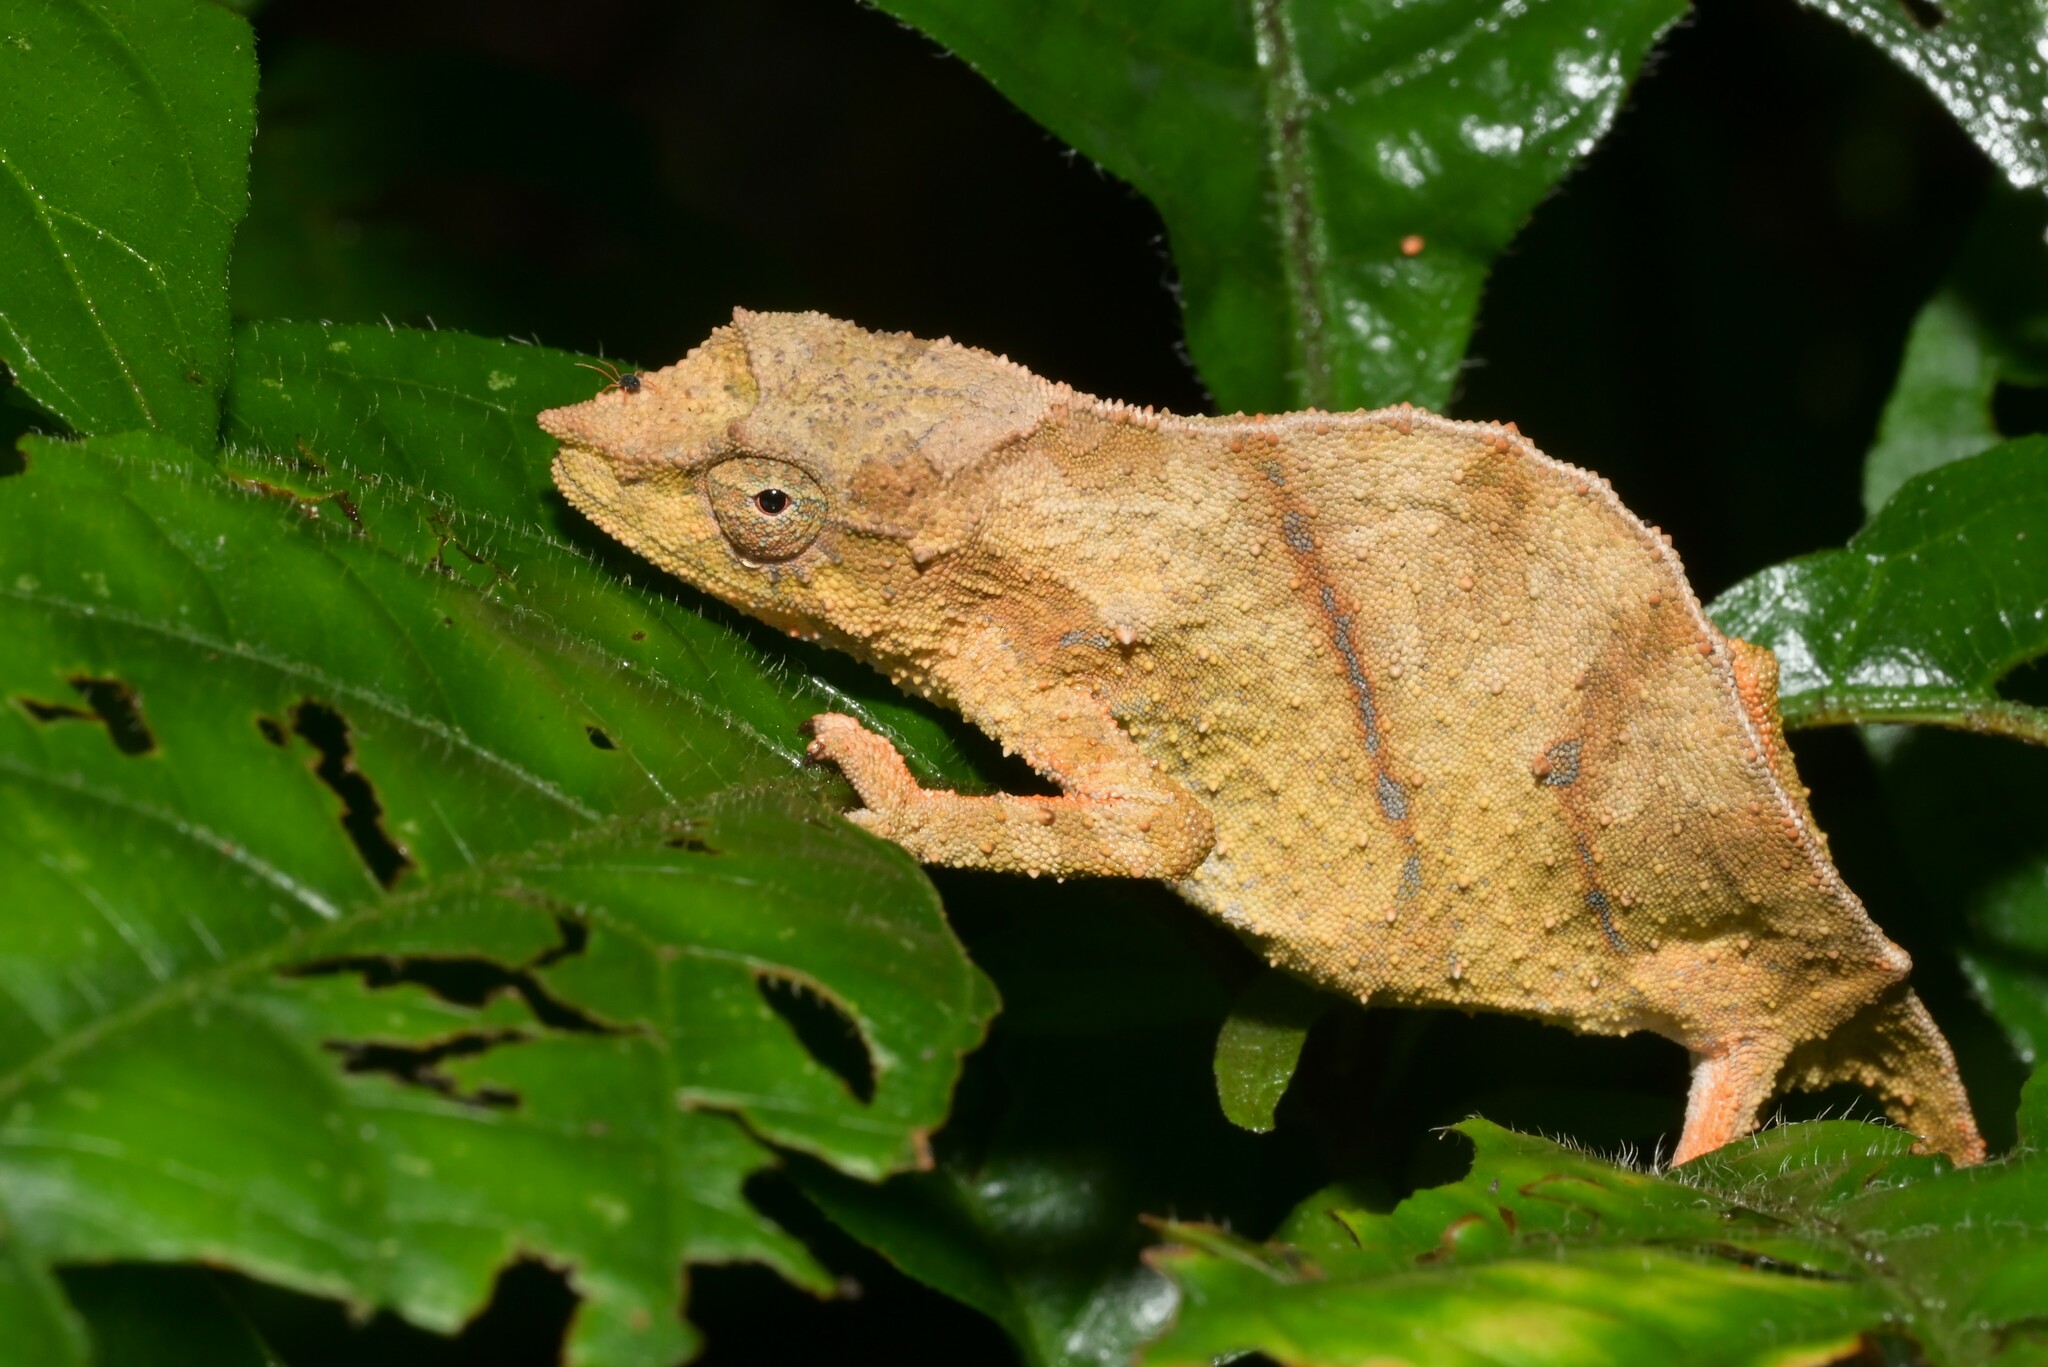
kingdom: Animalia
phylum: Chordata
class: Squamata
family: Chamaeleonidae
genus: Rhampholeon
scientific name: Rhampholeon nchisiensis
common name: South african stumptail chameleon
